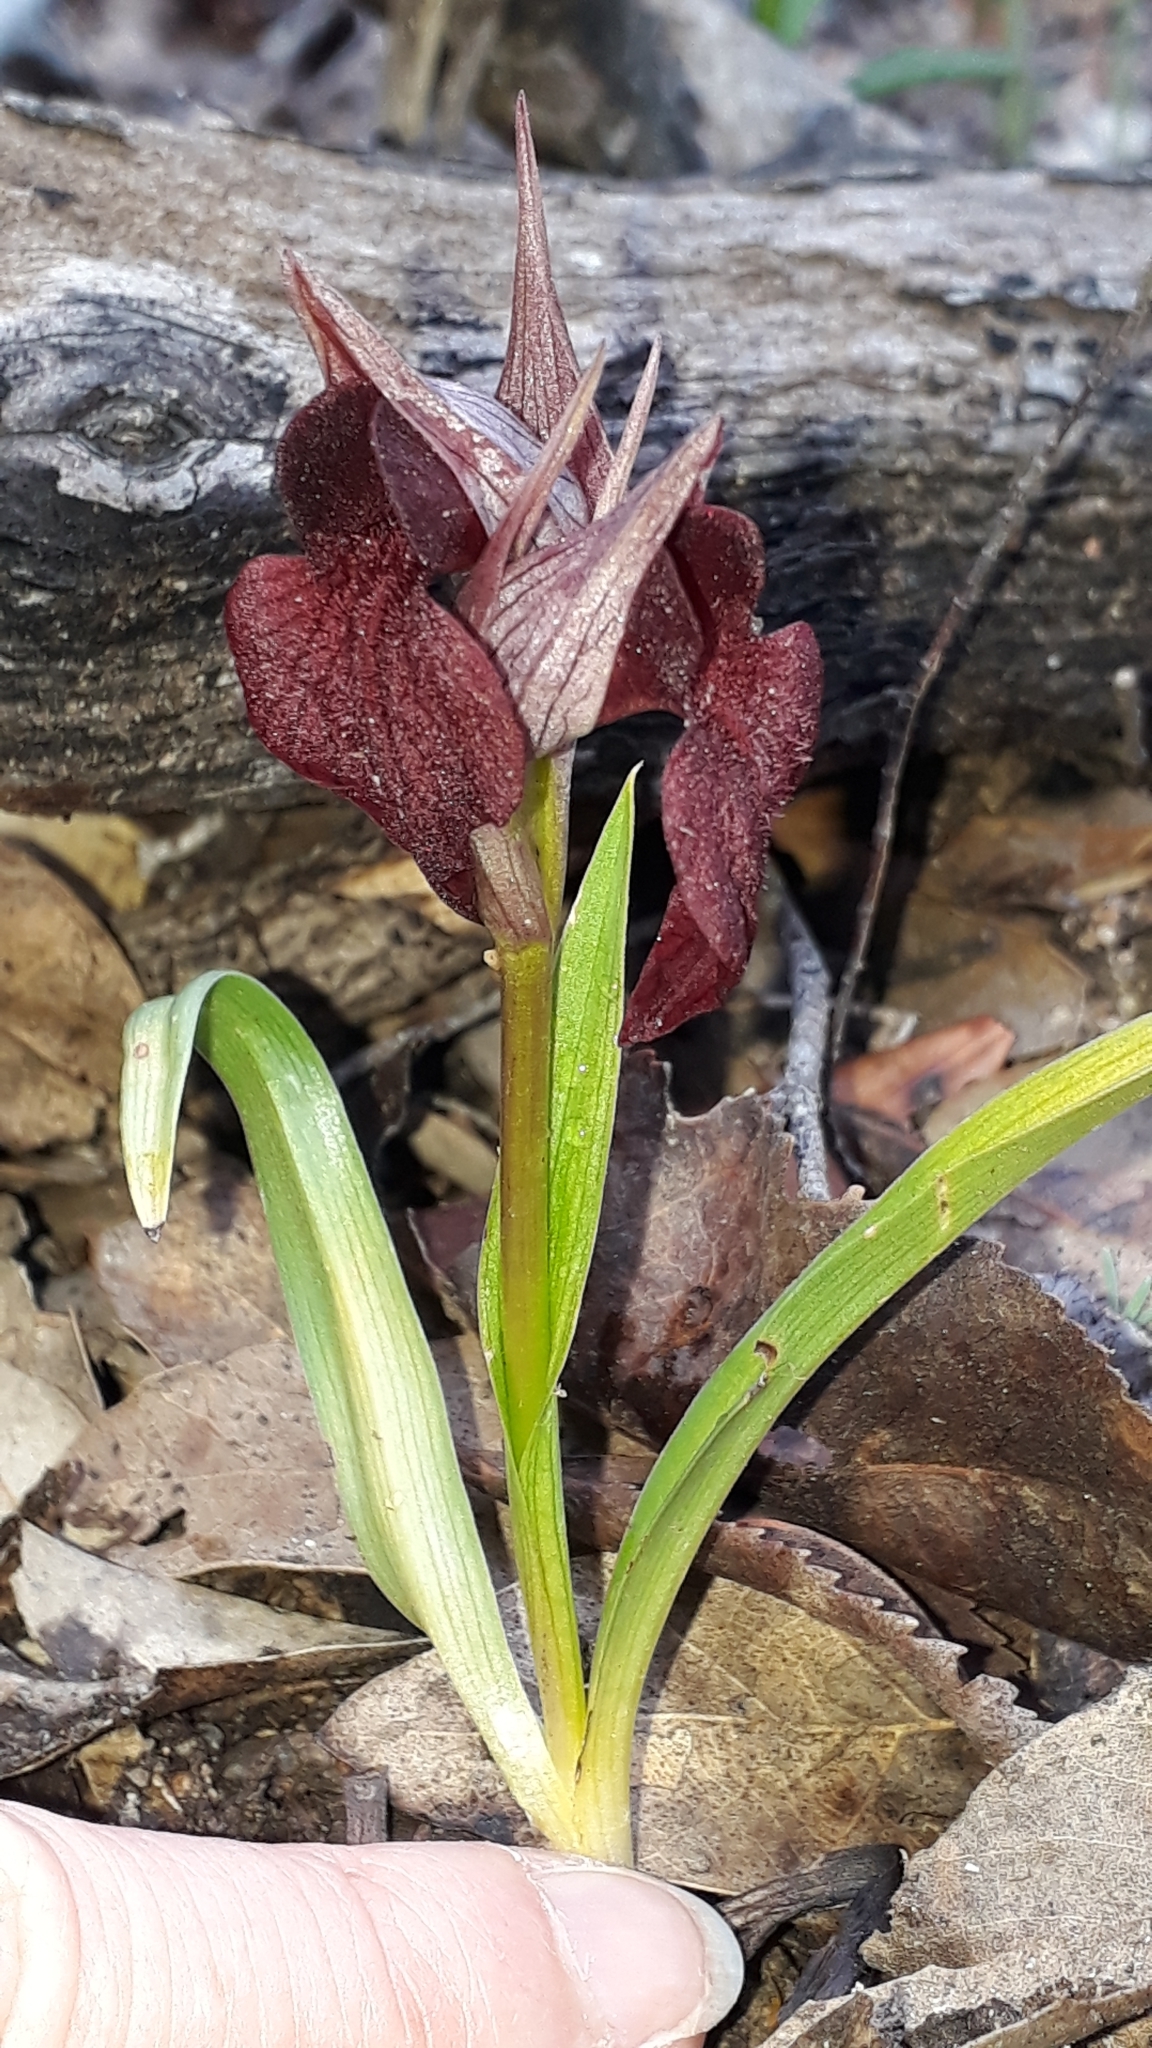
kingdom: Plantae
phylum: Tracheophyta
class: Liliopsida
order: Asparagales
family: Orchidaceae
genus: Serapias
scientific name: Serapias cordigera
